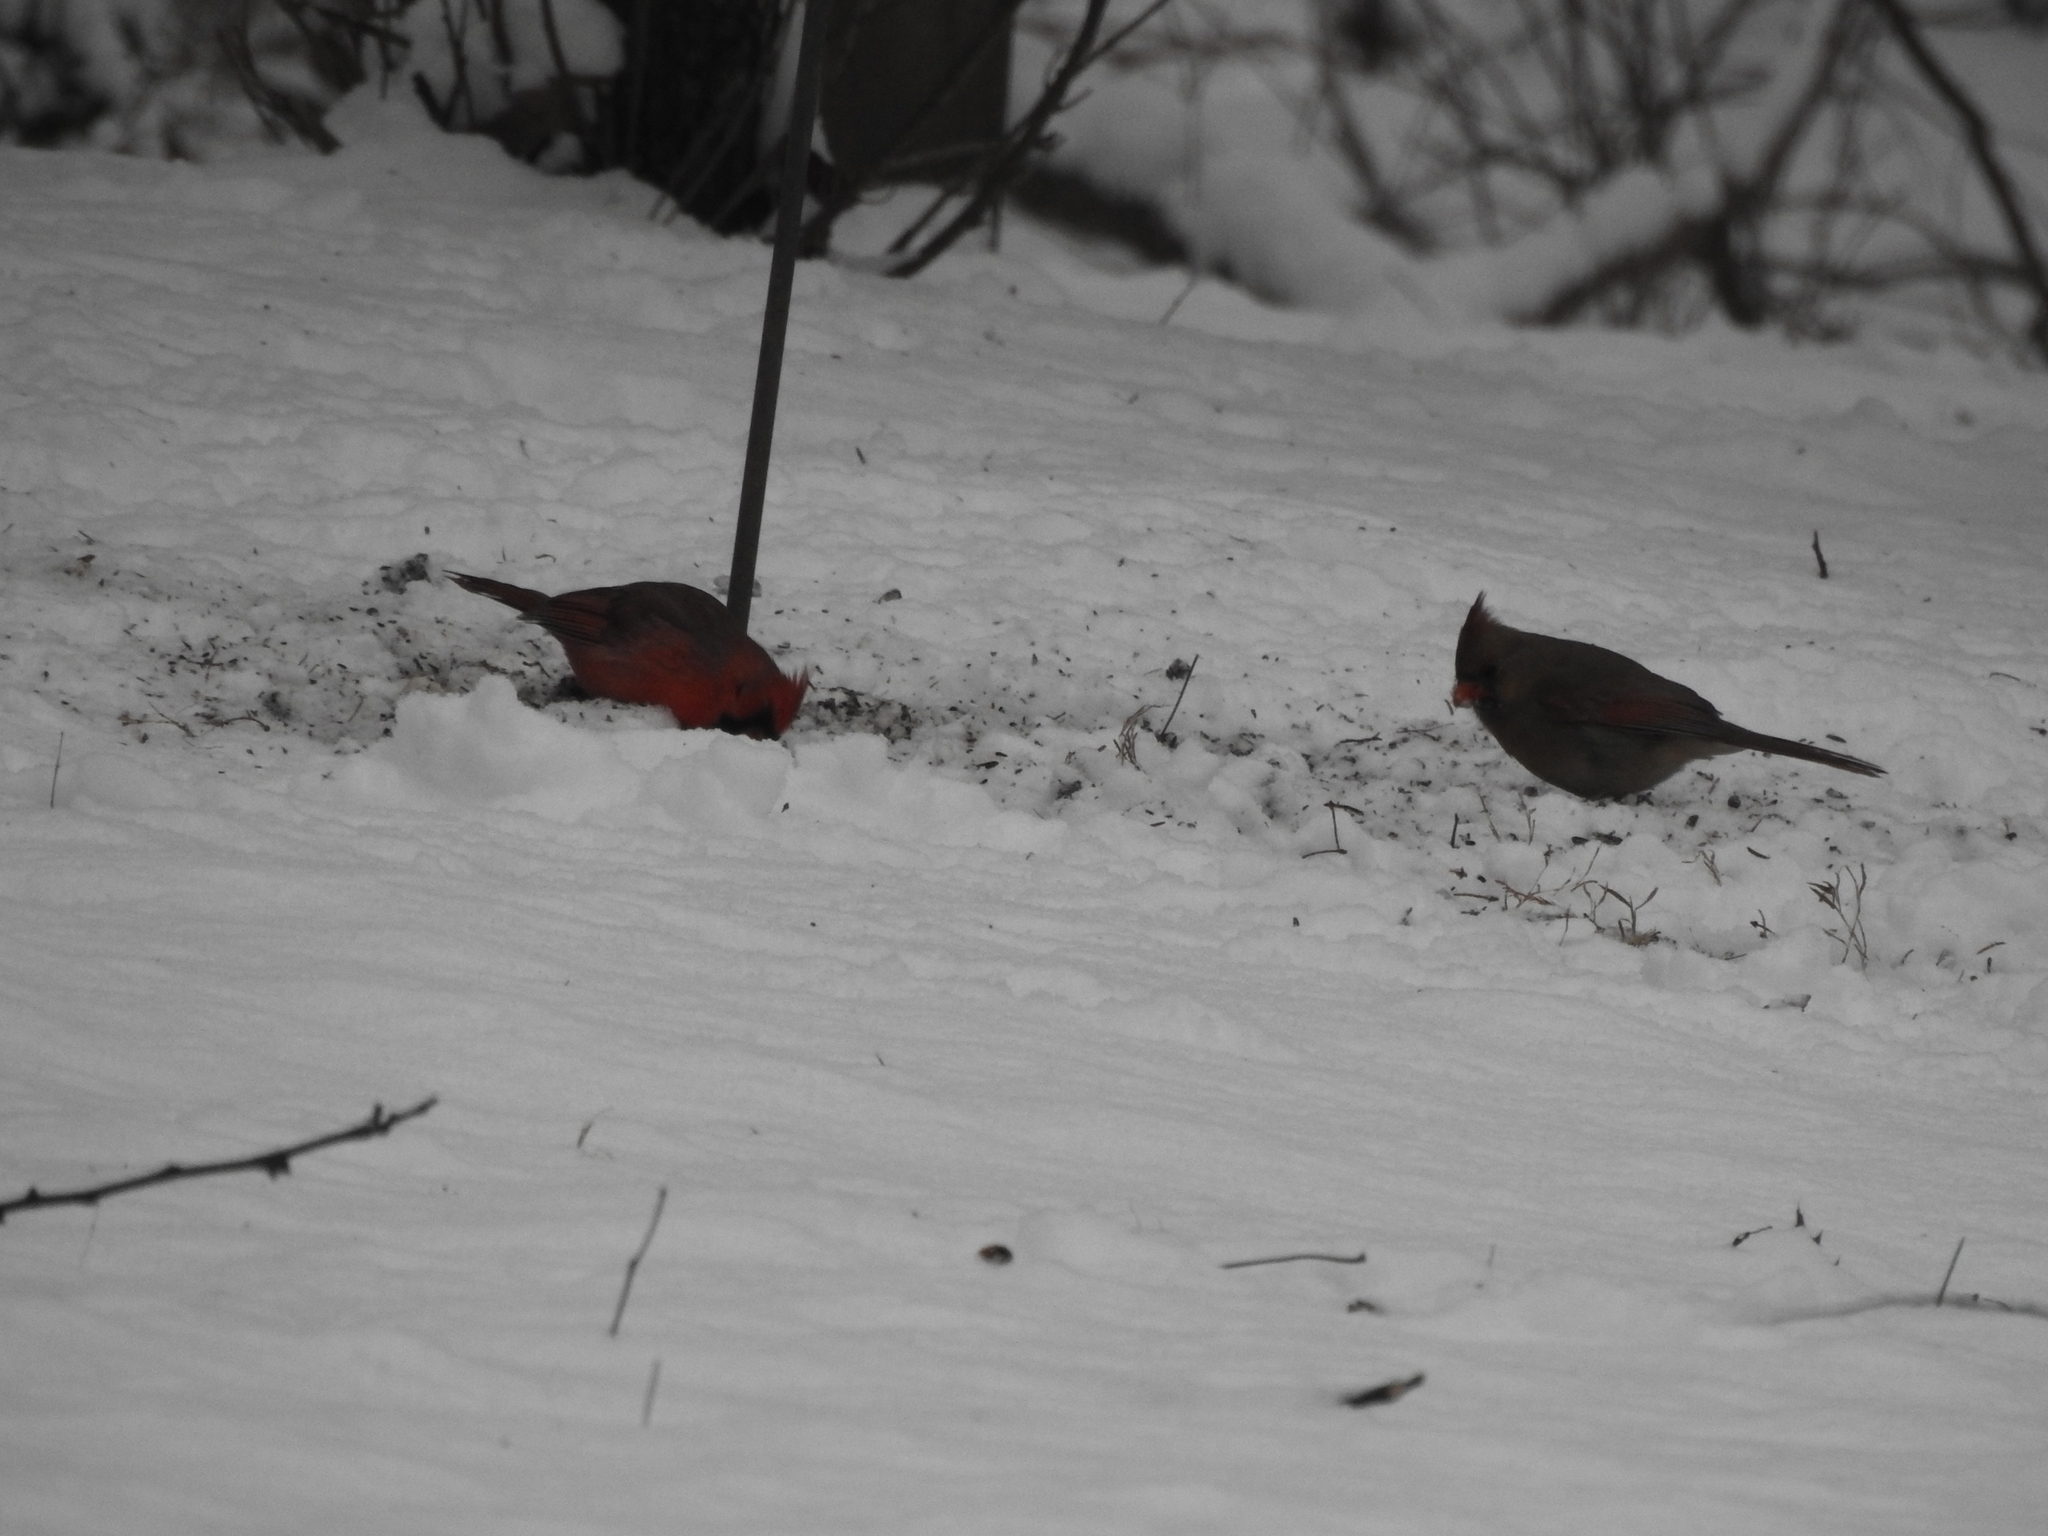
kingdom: Animalia
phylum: Chordata
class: Aves
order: Passeriformes
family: Cardinalidae
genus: Cardinalis
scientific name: Cardinalis cardinalis
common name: Northern cardinal
